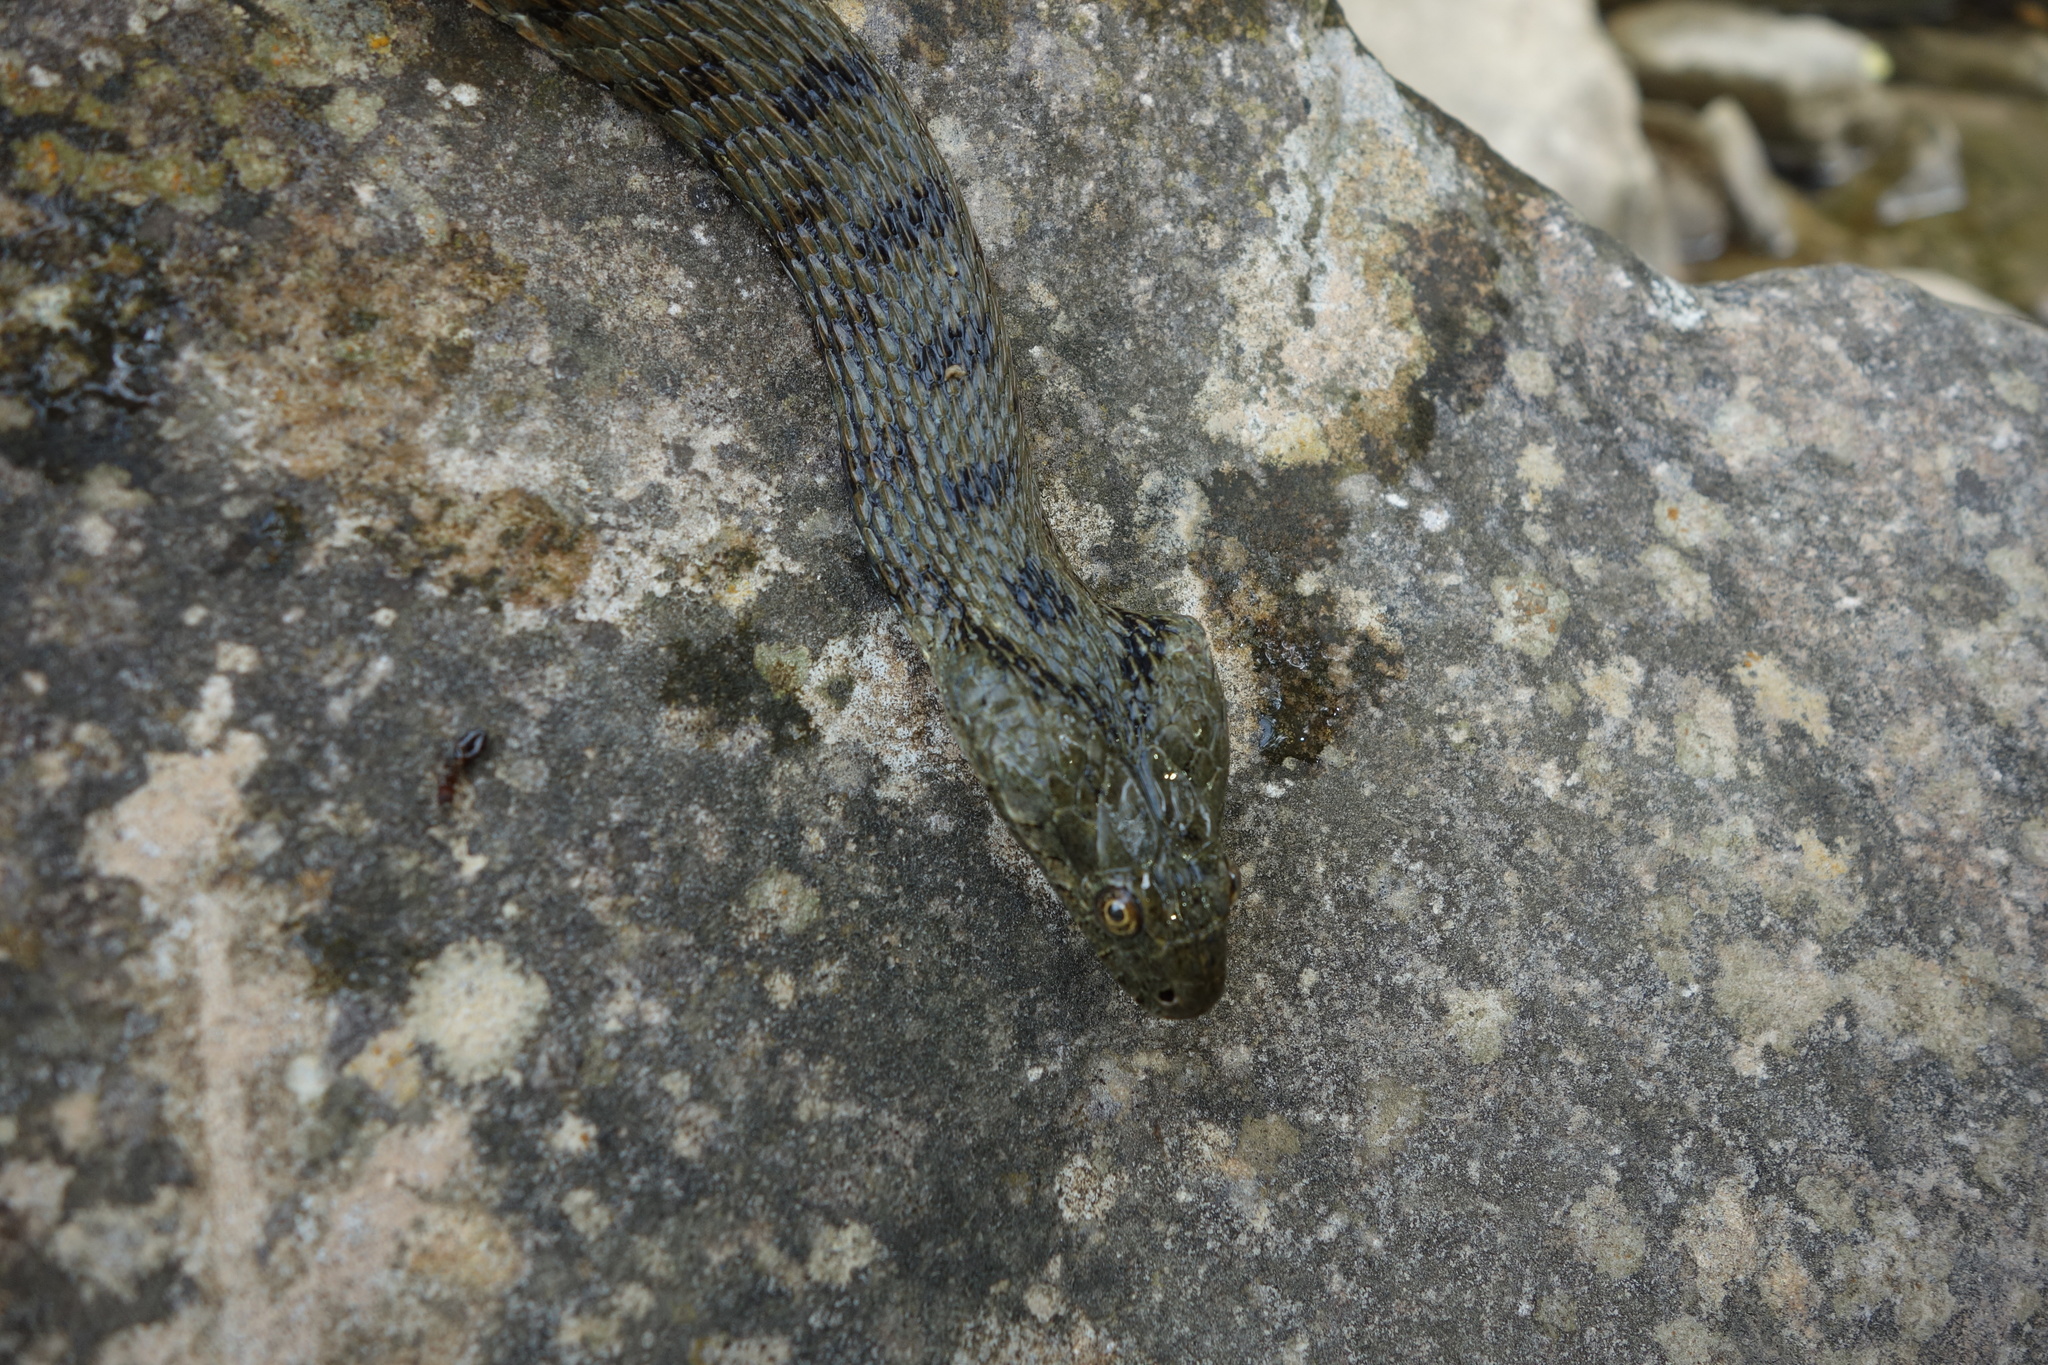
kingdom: Animalia
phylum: Chordata
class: Squamata
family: Colubridae
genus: Natrix
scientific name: Natrix tessellata
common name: Dice snake
